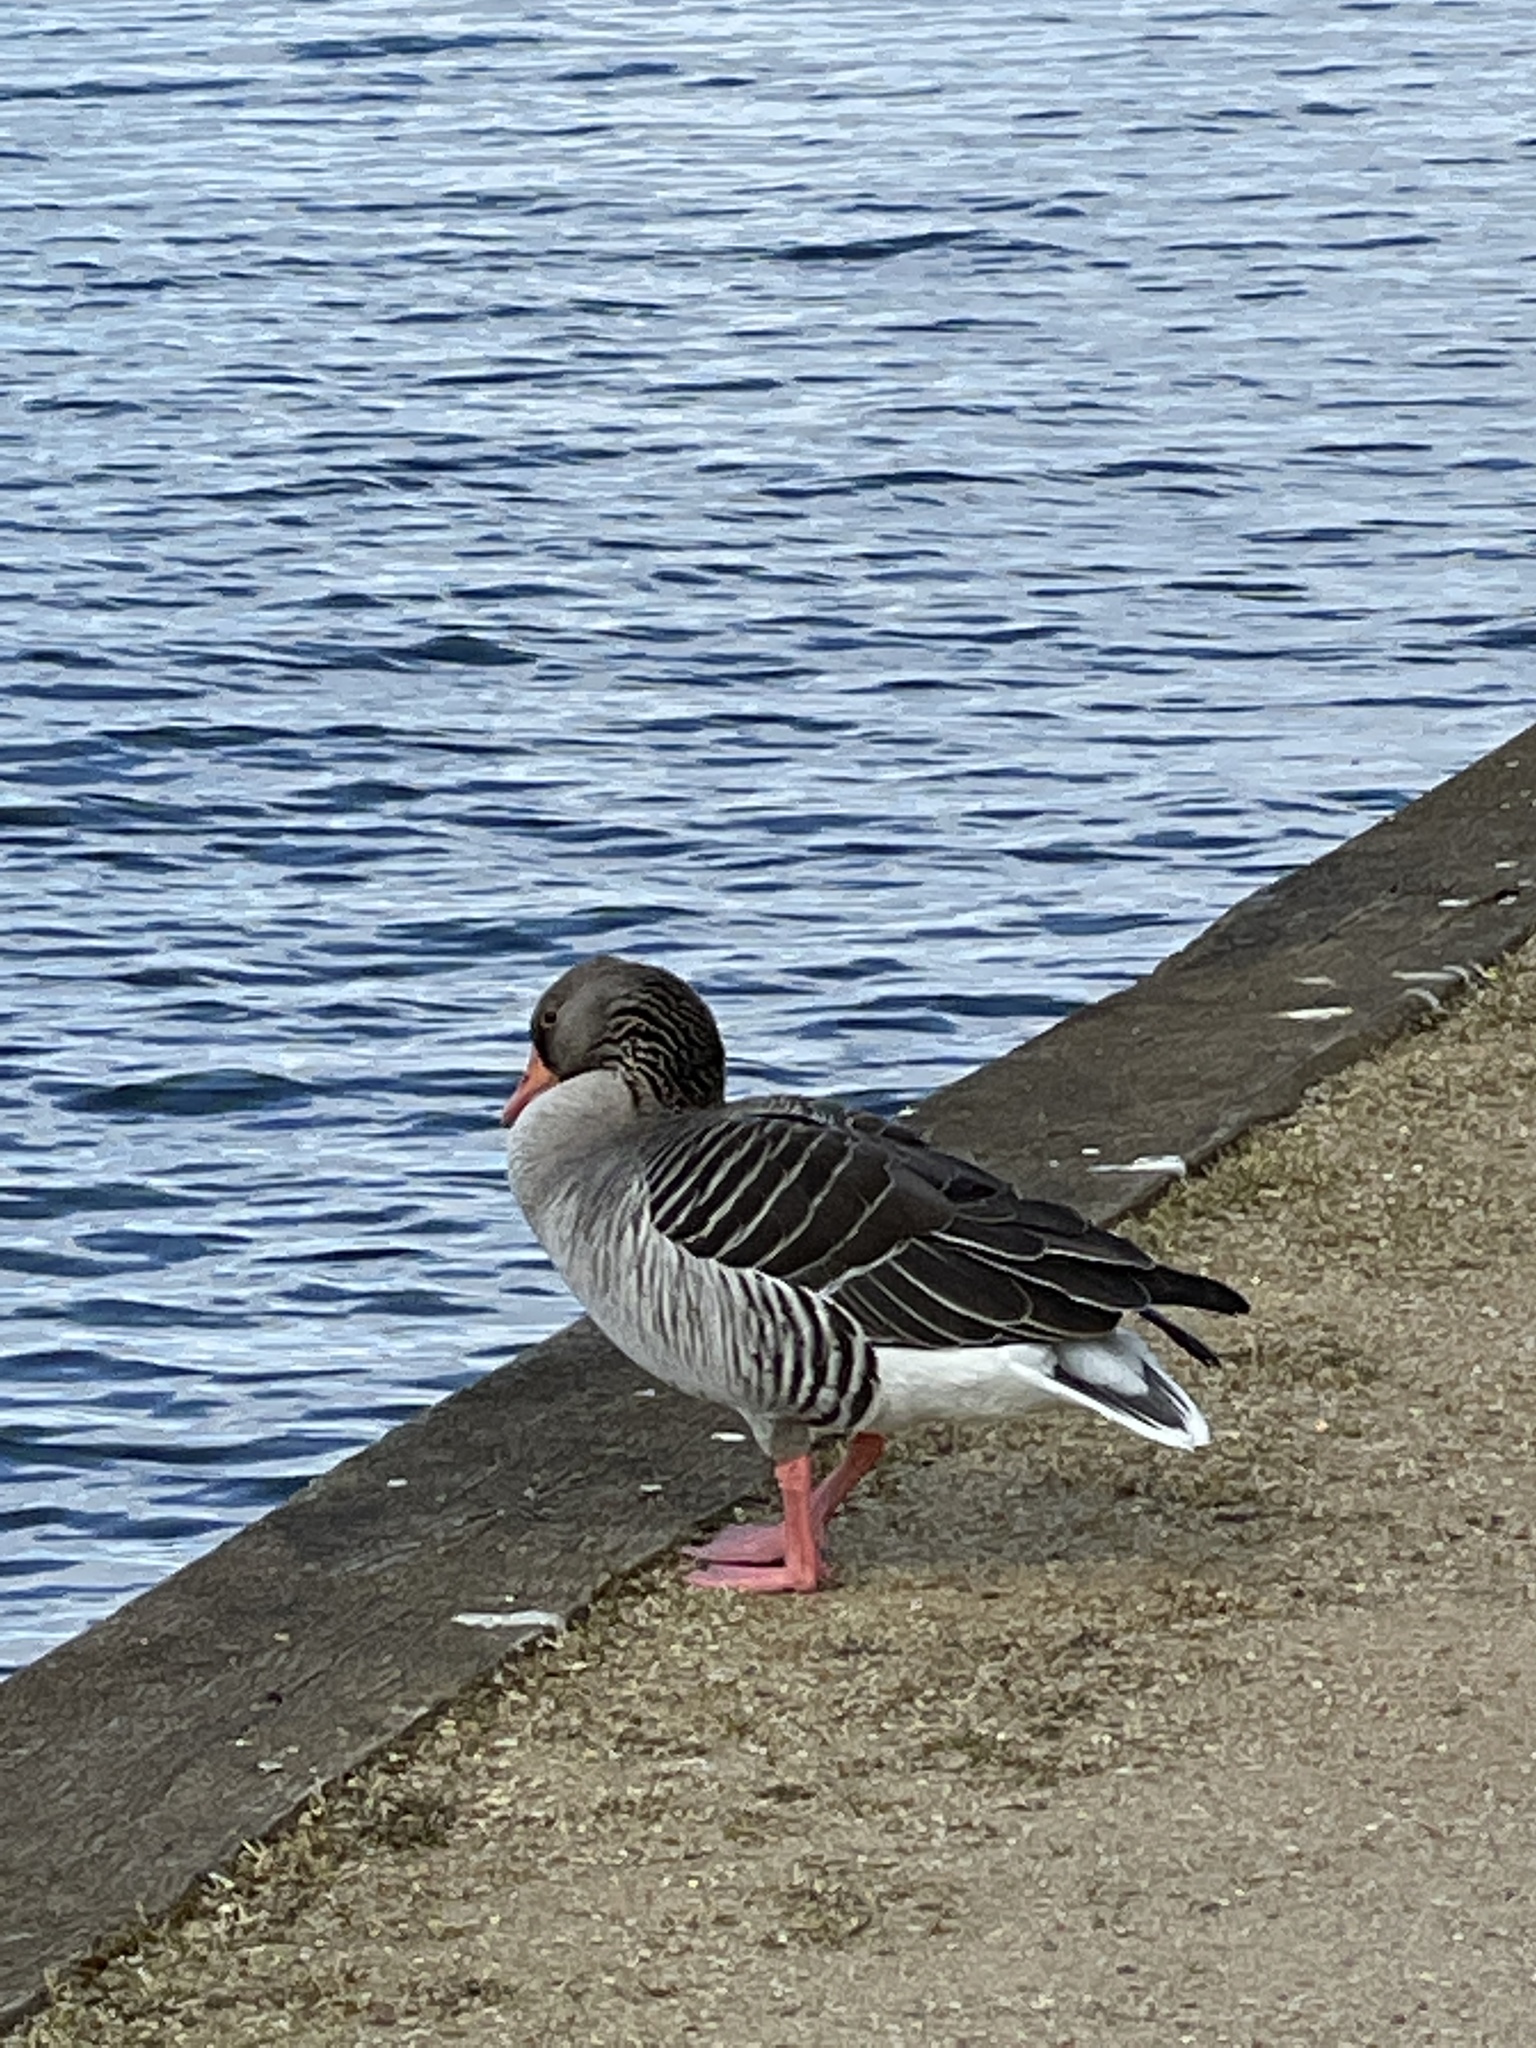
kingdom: Animalia
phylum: Chordata
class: Aves
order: Anseriformes
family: Anatidae
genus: Anser
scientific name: Anser anser
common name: Greylag goose
